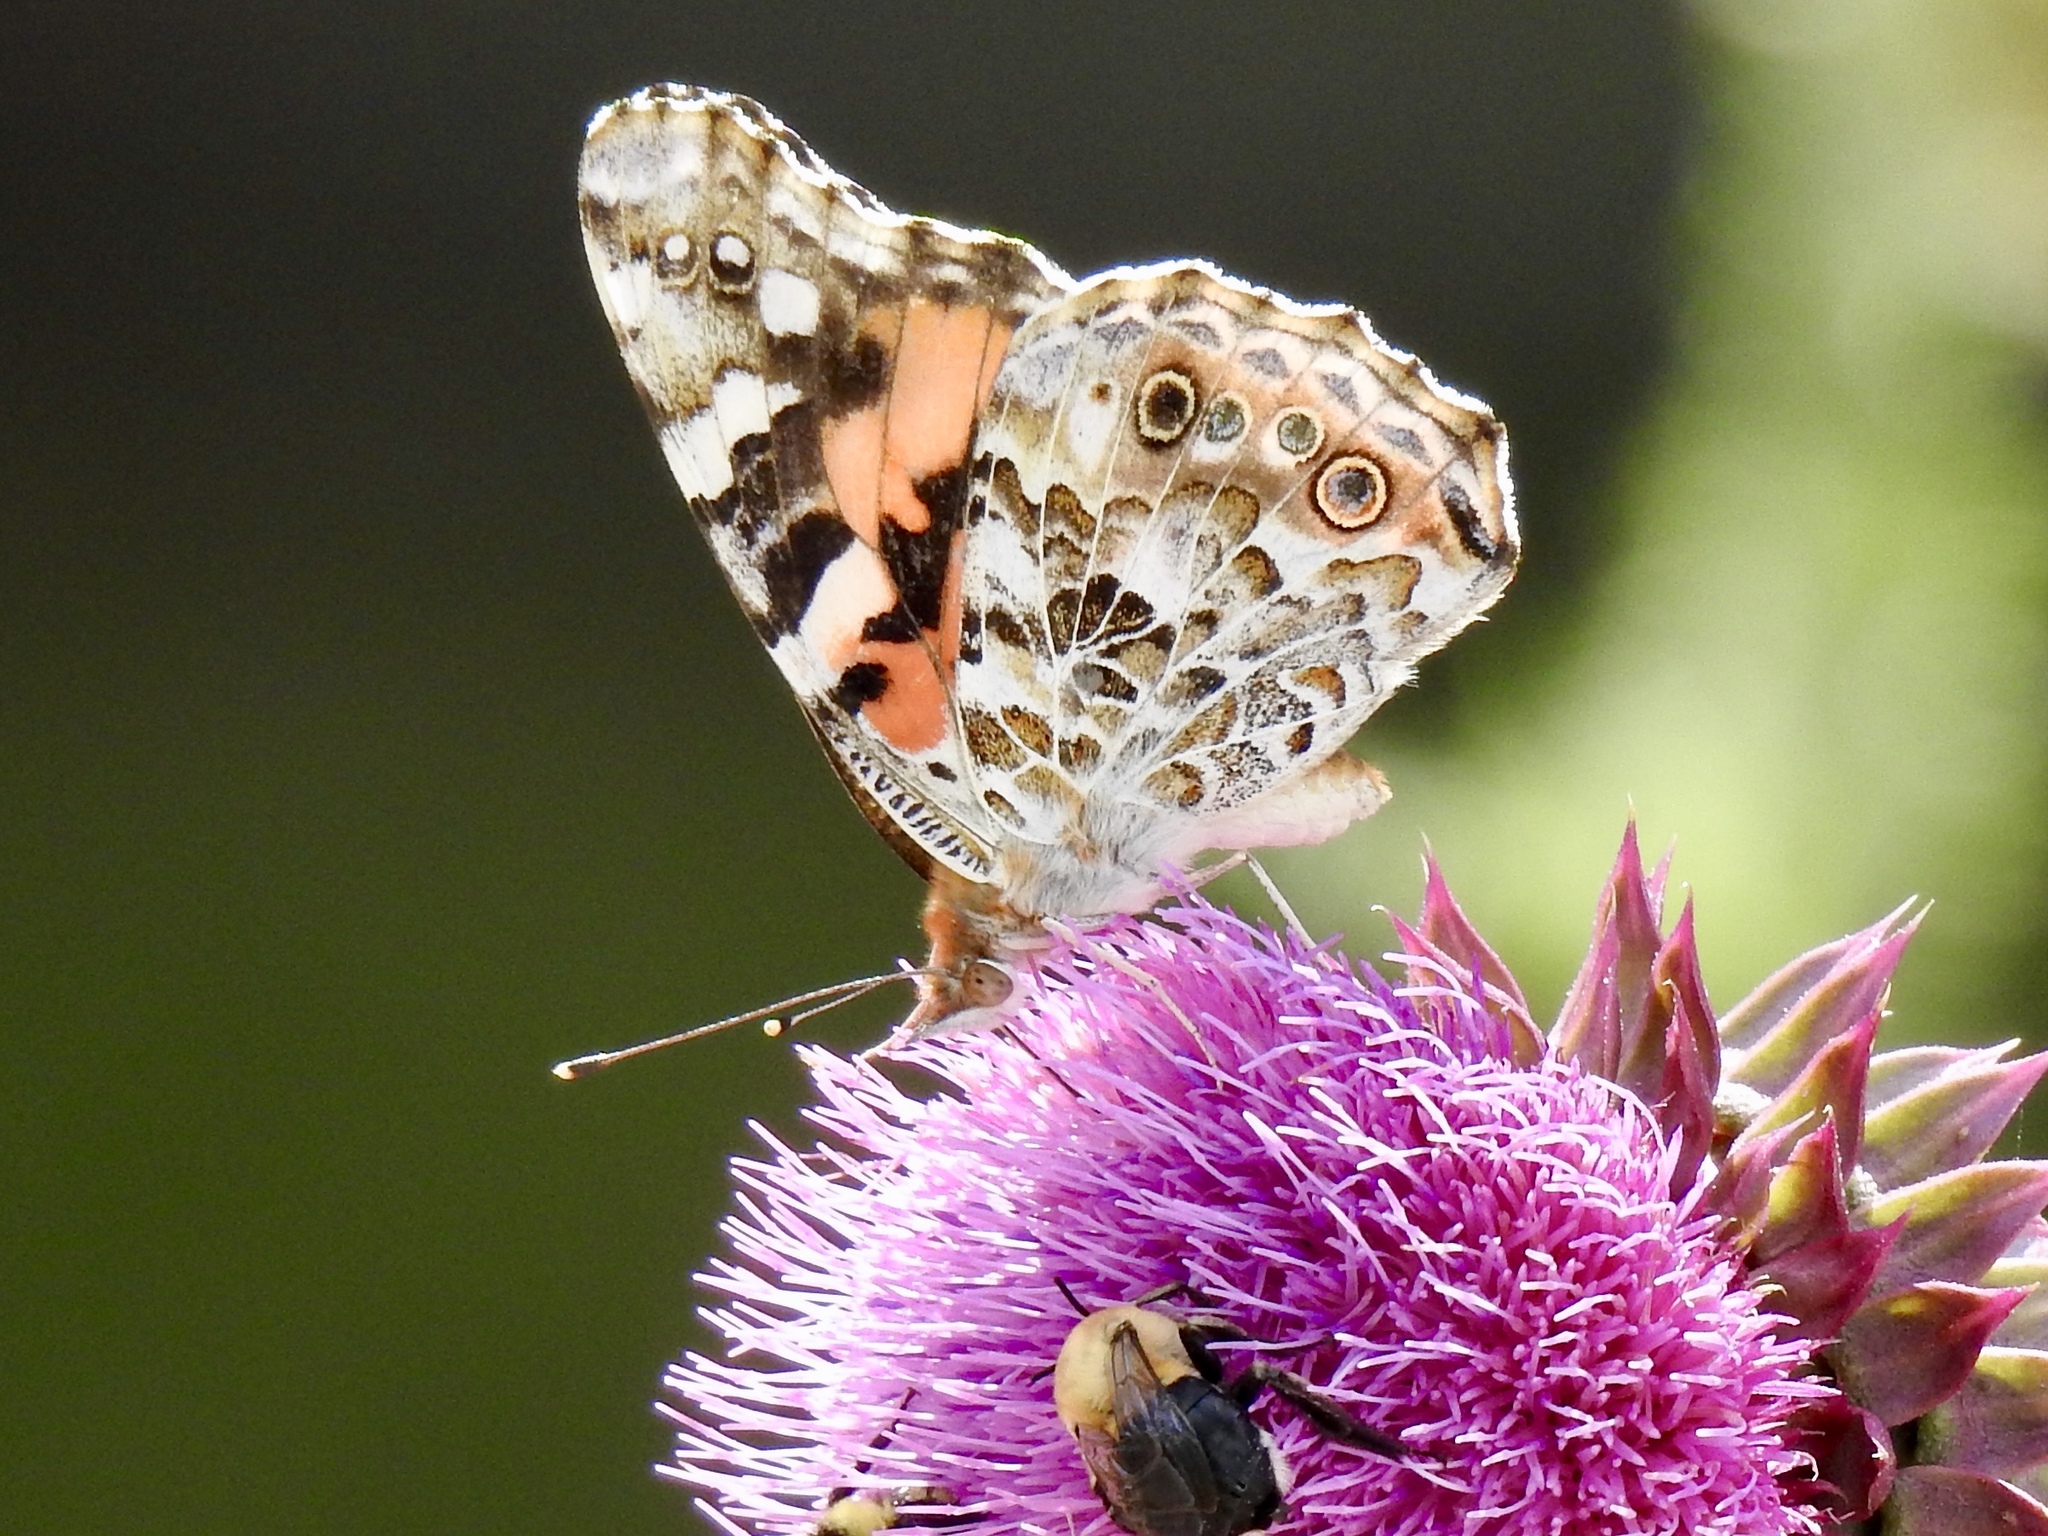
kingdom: Animalia
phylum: Arthropoda
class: Insecta
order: Lepidoptera
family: Nymphalidae
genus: Vanessa
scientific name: Vanessa cardui
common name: Painted lady
